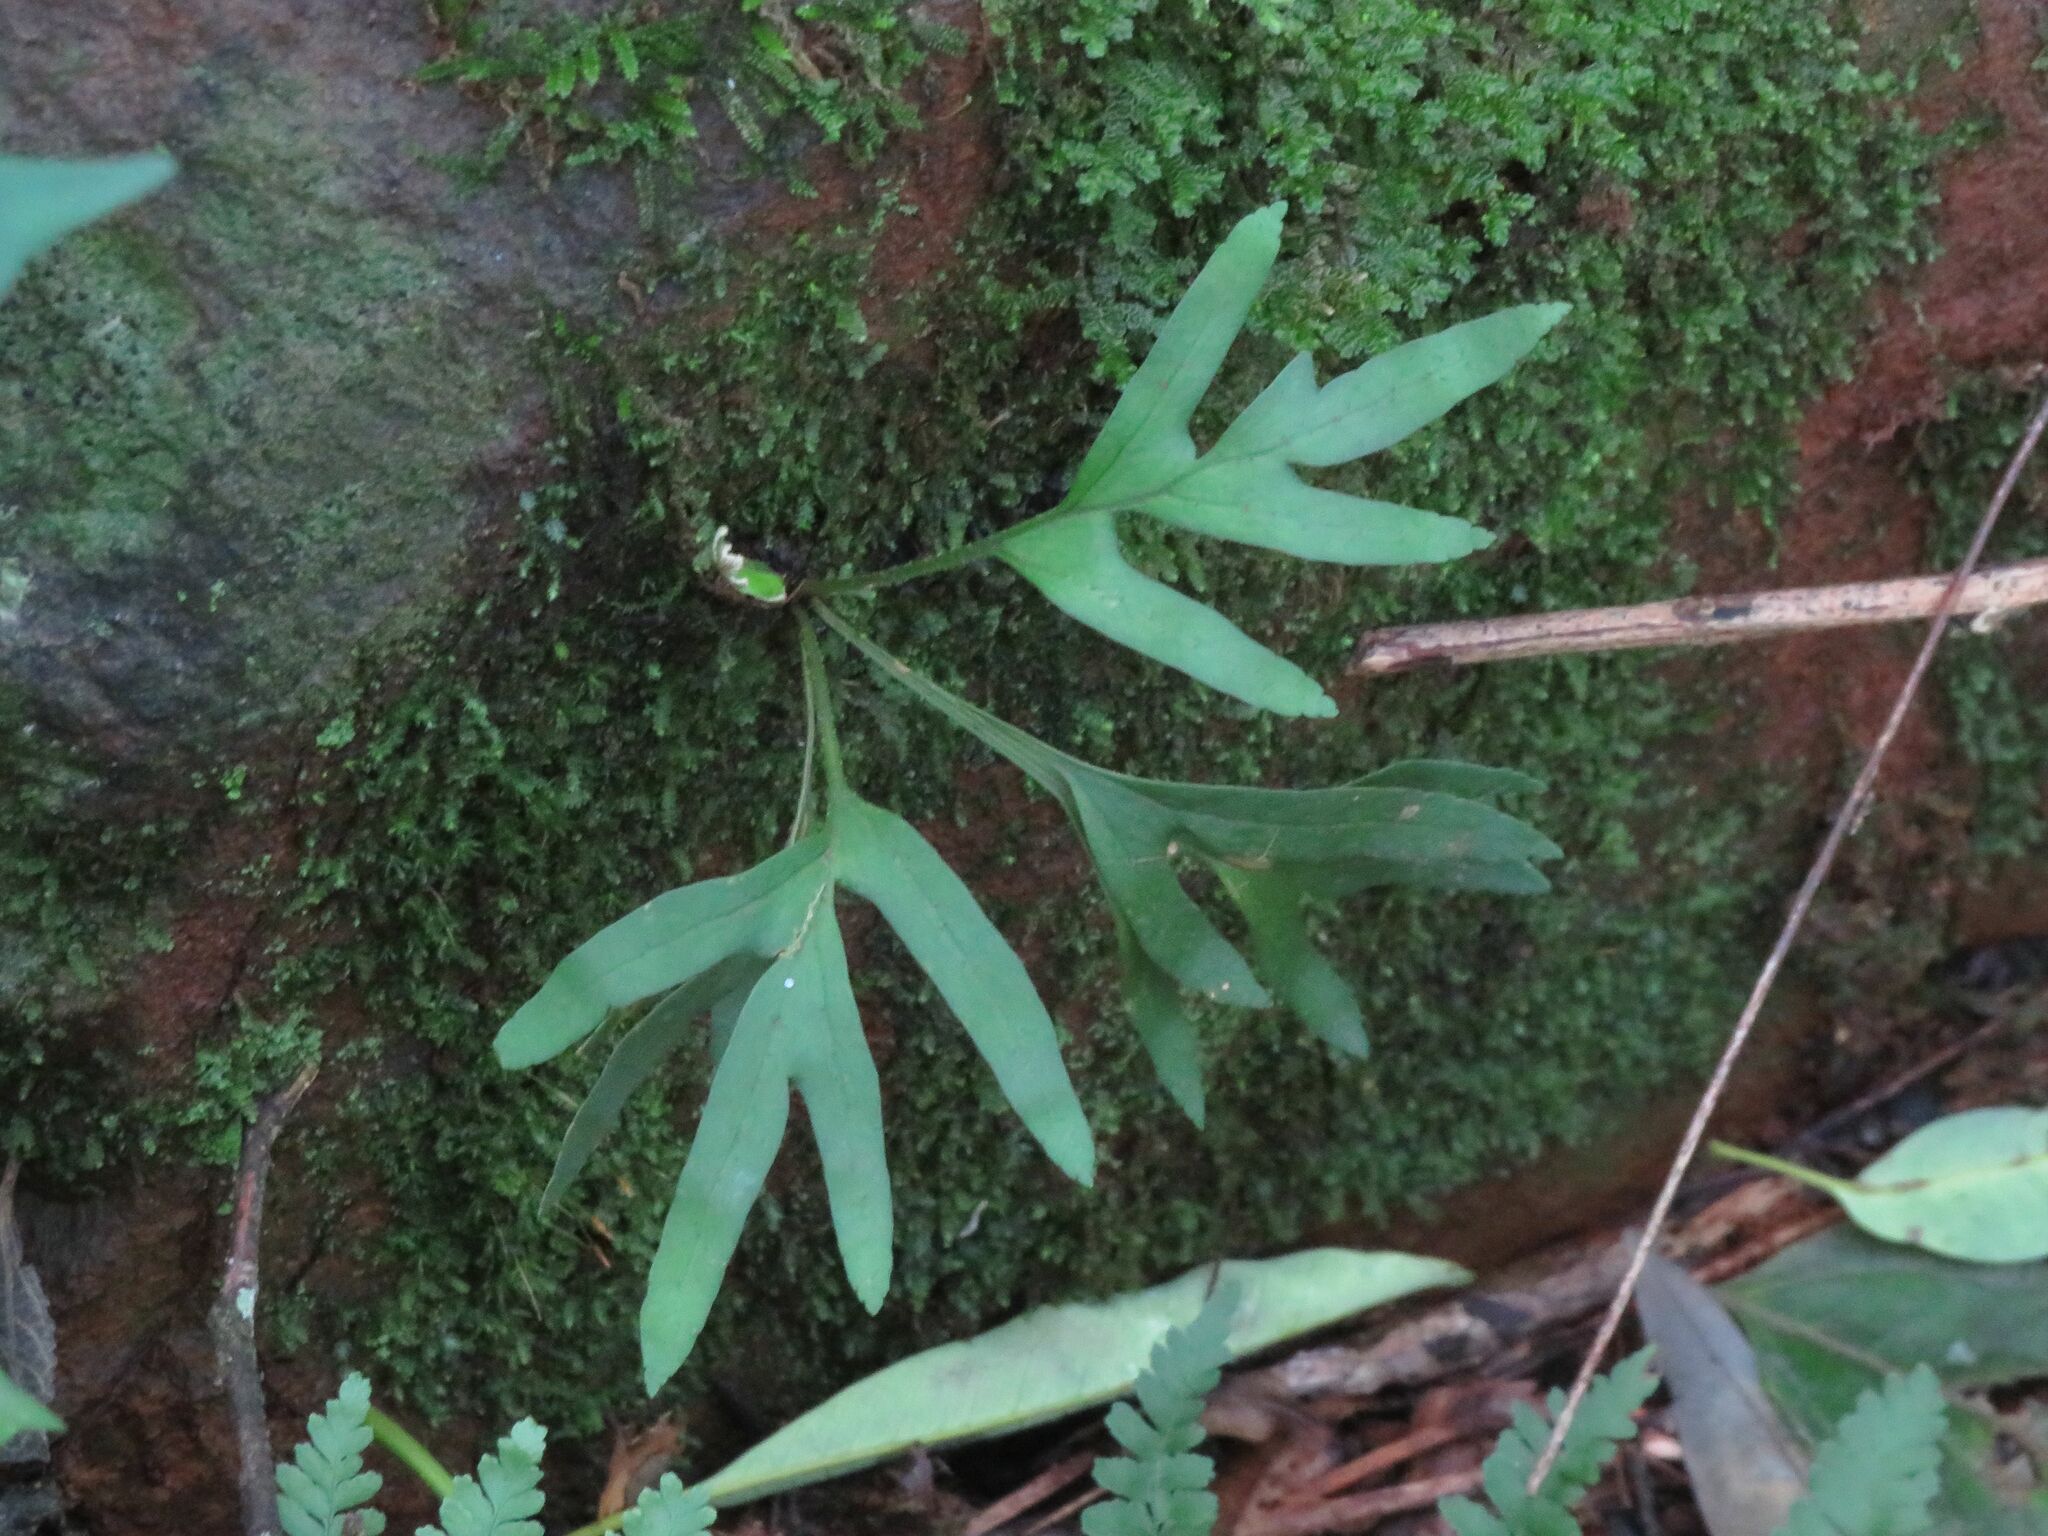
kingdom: Plantae
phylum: Tracheophyta
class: Polypodiopsida
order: Polypodiales
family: Polypodiaceae
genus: Pleopeltis
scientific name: Pleopeltis pleopeltifolia
